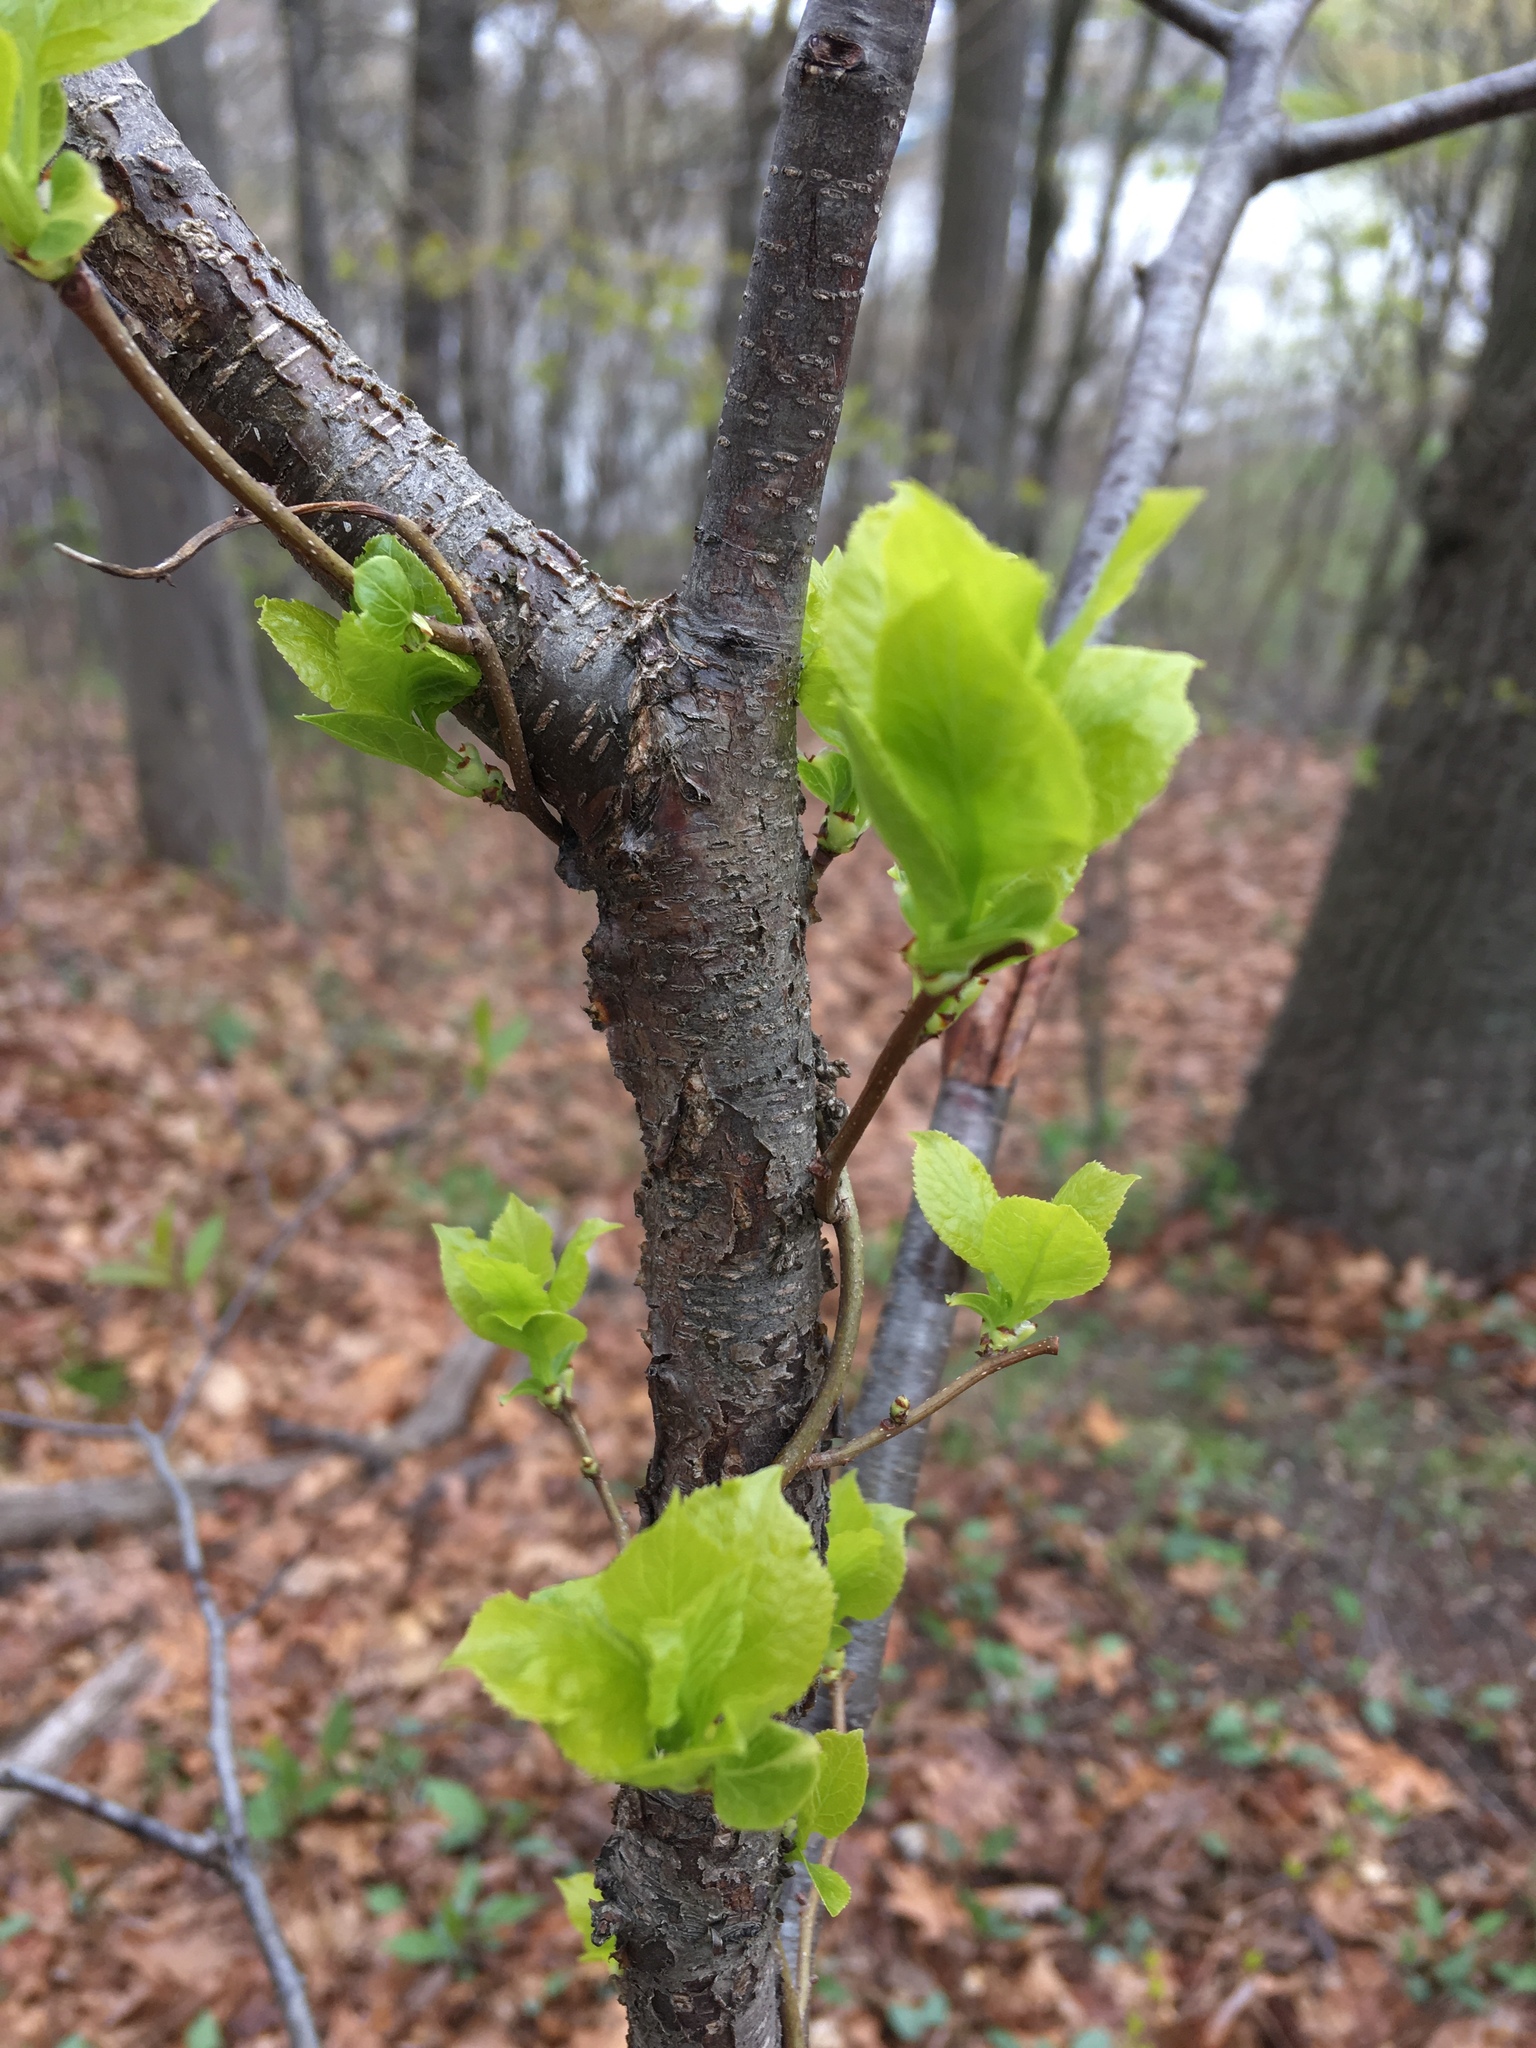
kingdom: Plantae
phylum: Tracheophyta
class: Magnoliopsida
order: Celastrales
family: Celastraceae
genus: Celastrus
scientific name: Celastrus orbiculatus
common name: Oriental bittersweet
